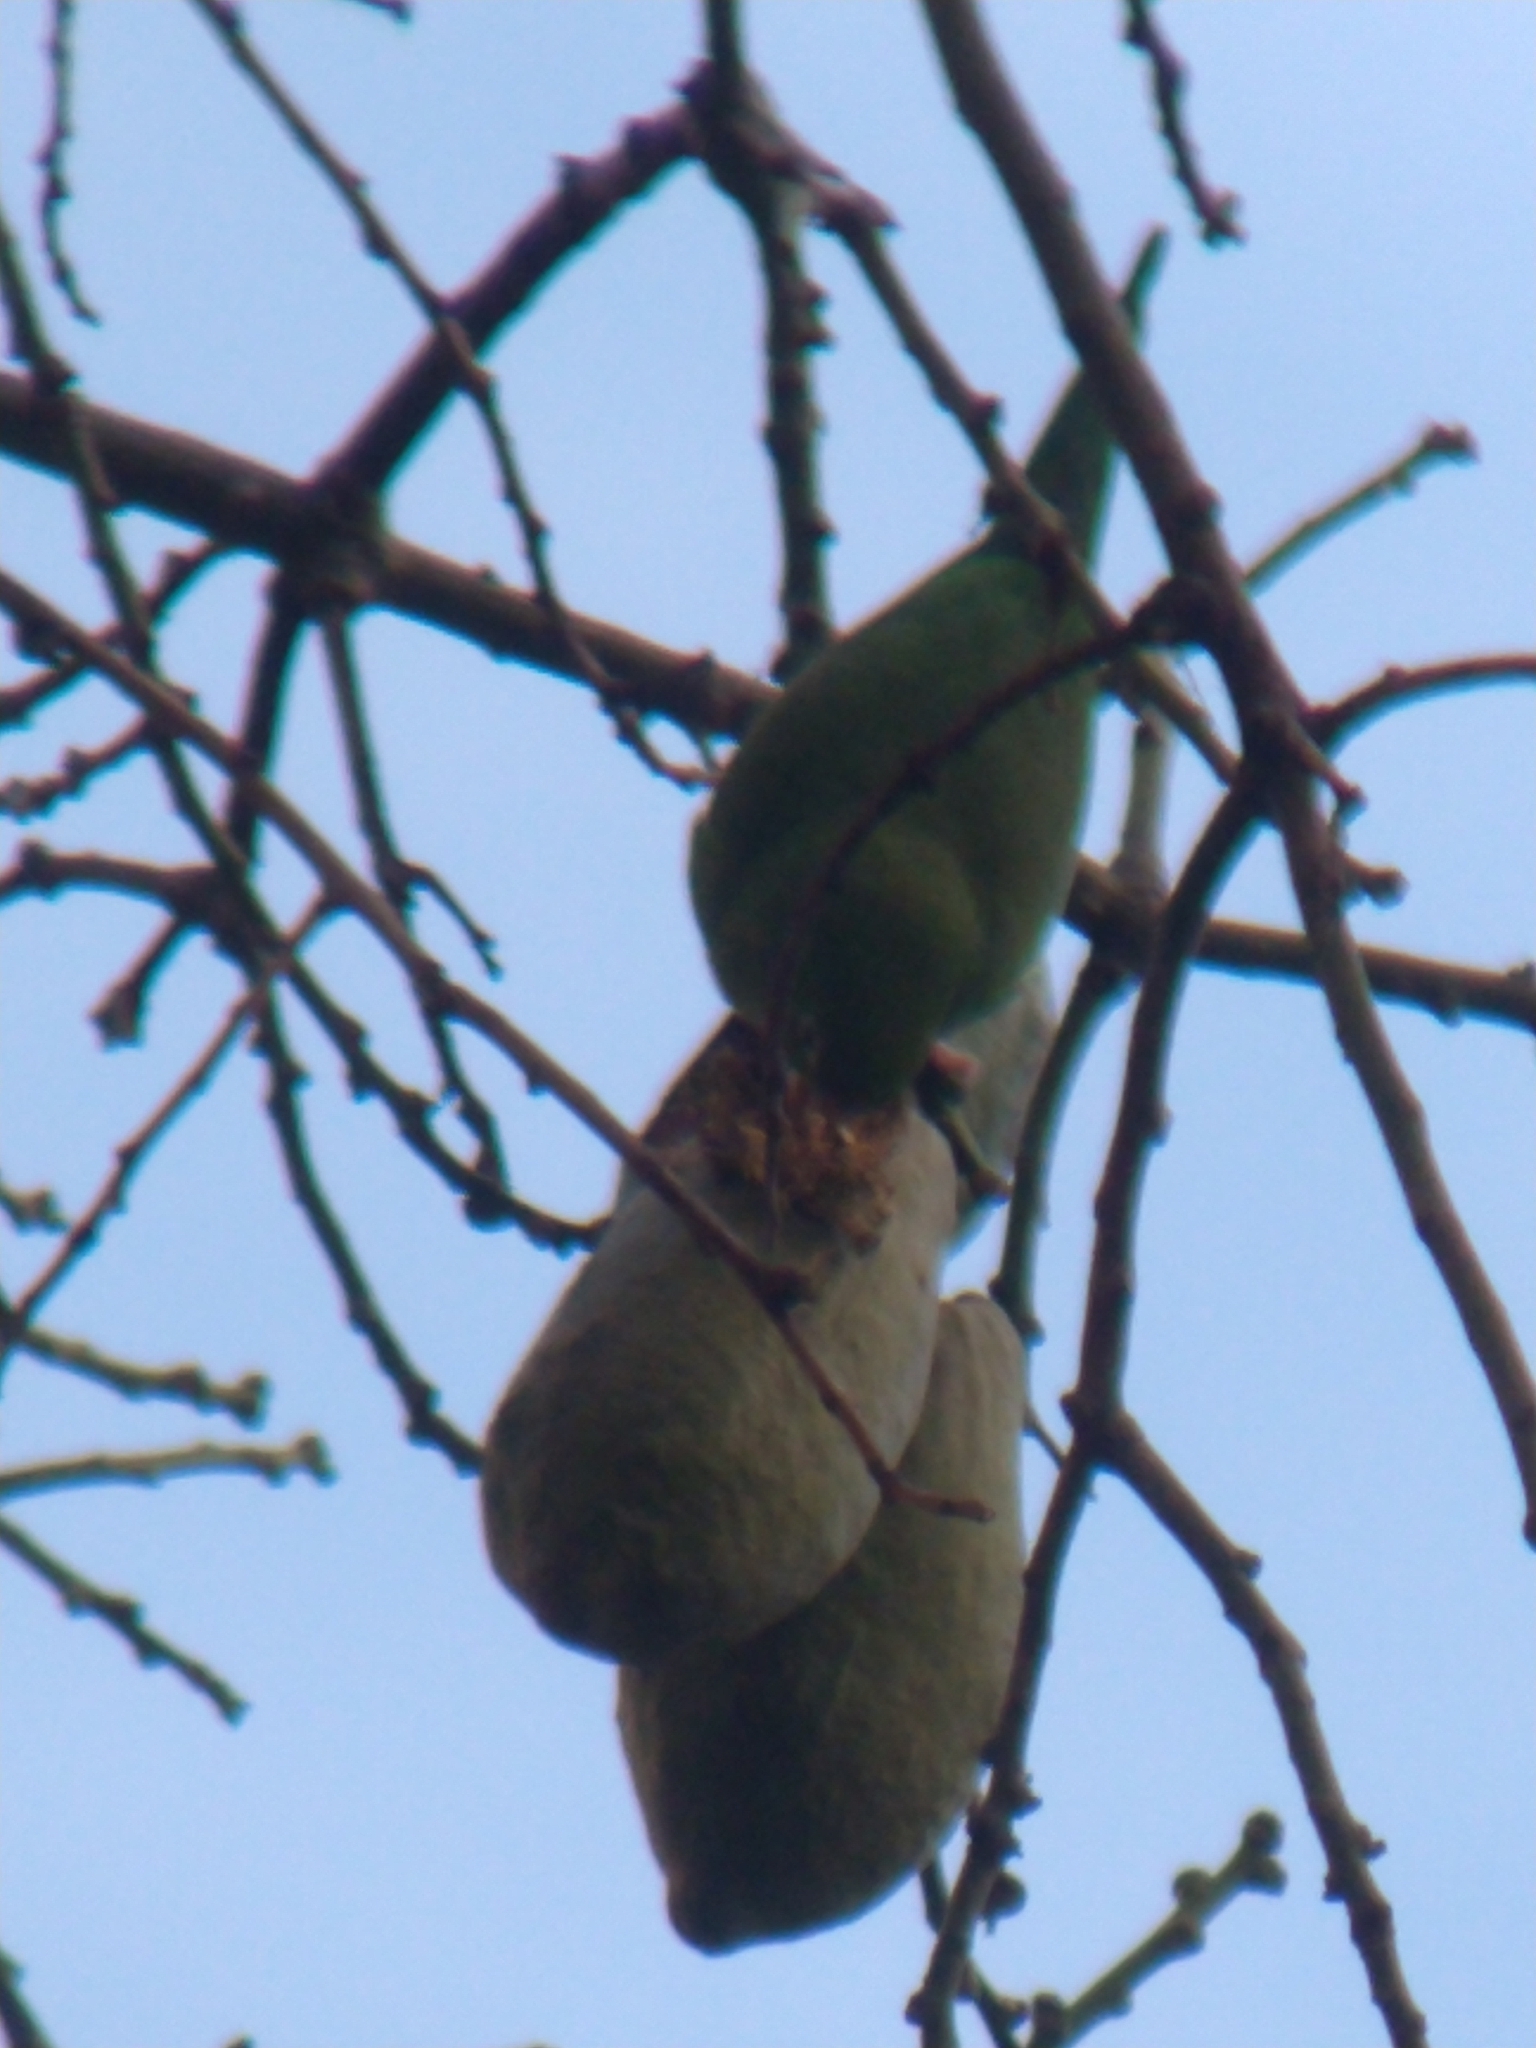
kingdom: Animalia
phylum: Chordata
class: Aves
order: Psittaciformes
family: Psittacidae
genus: Brotogeris
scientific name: Brotogeris chiriri
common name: Yellow-chevroned parakeet
